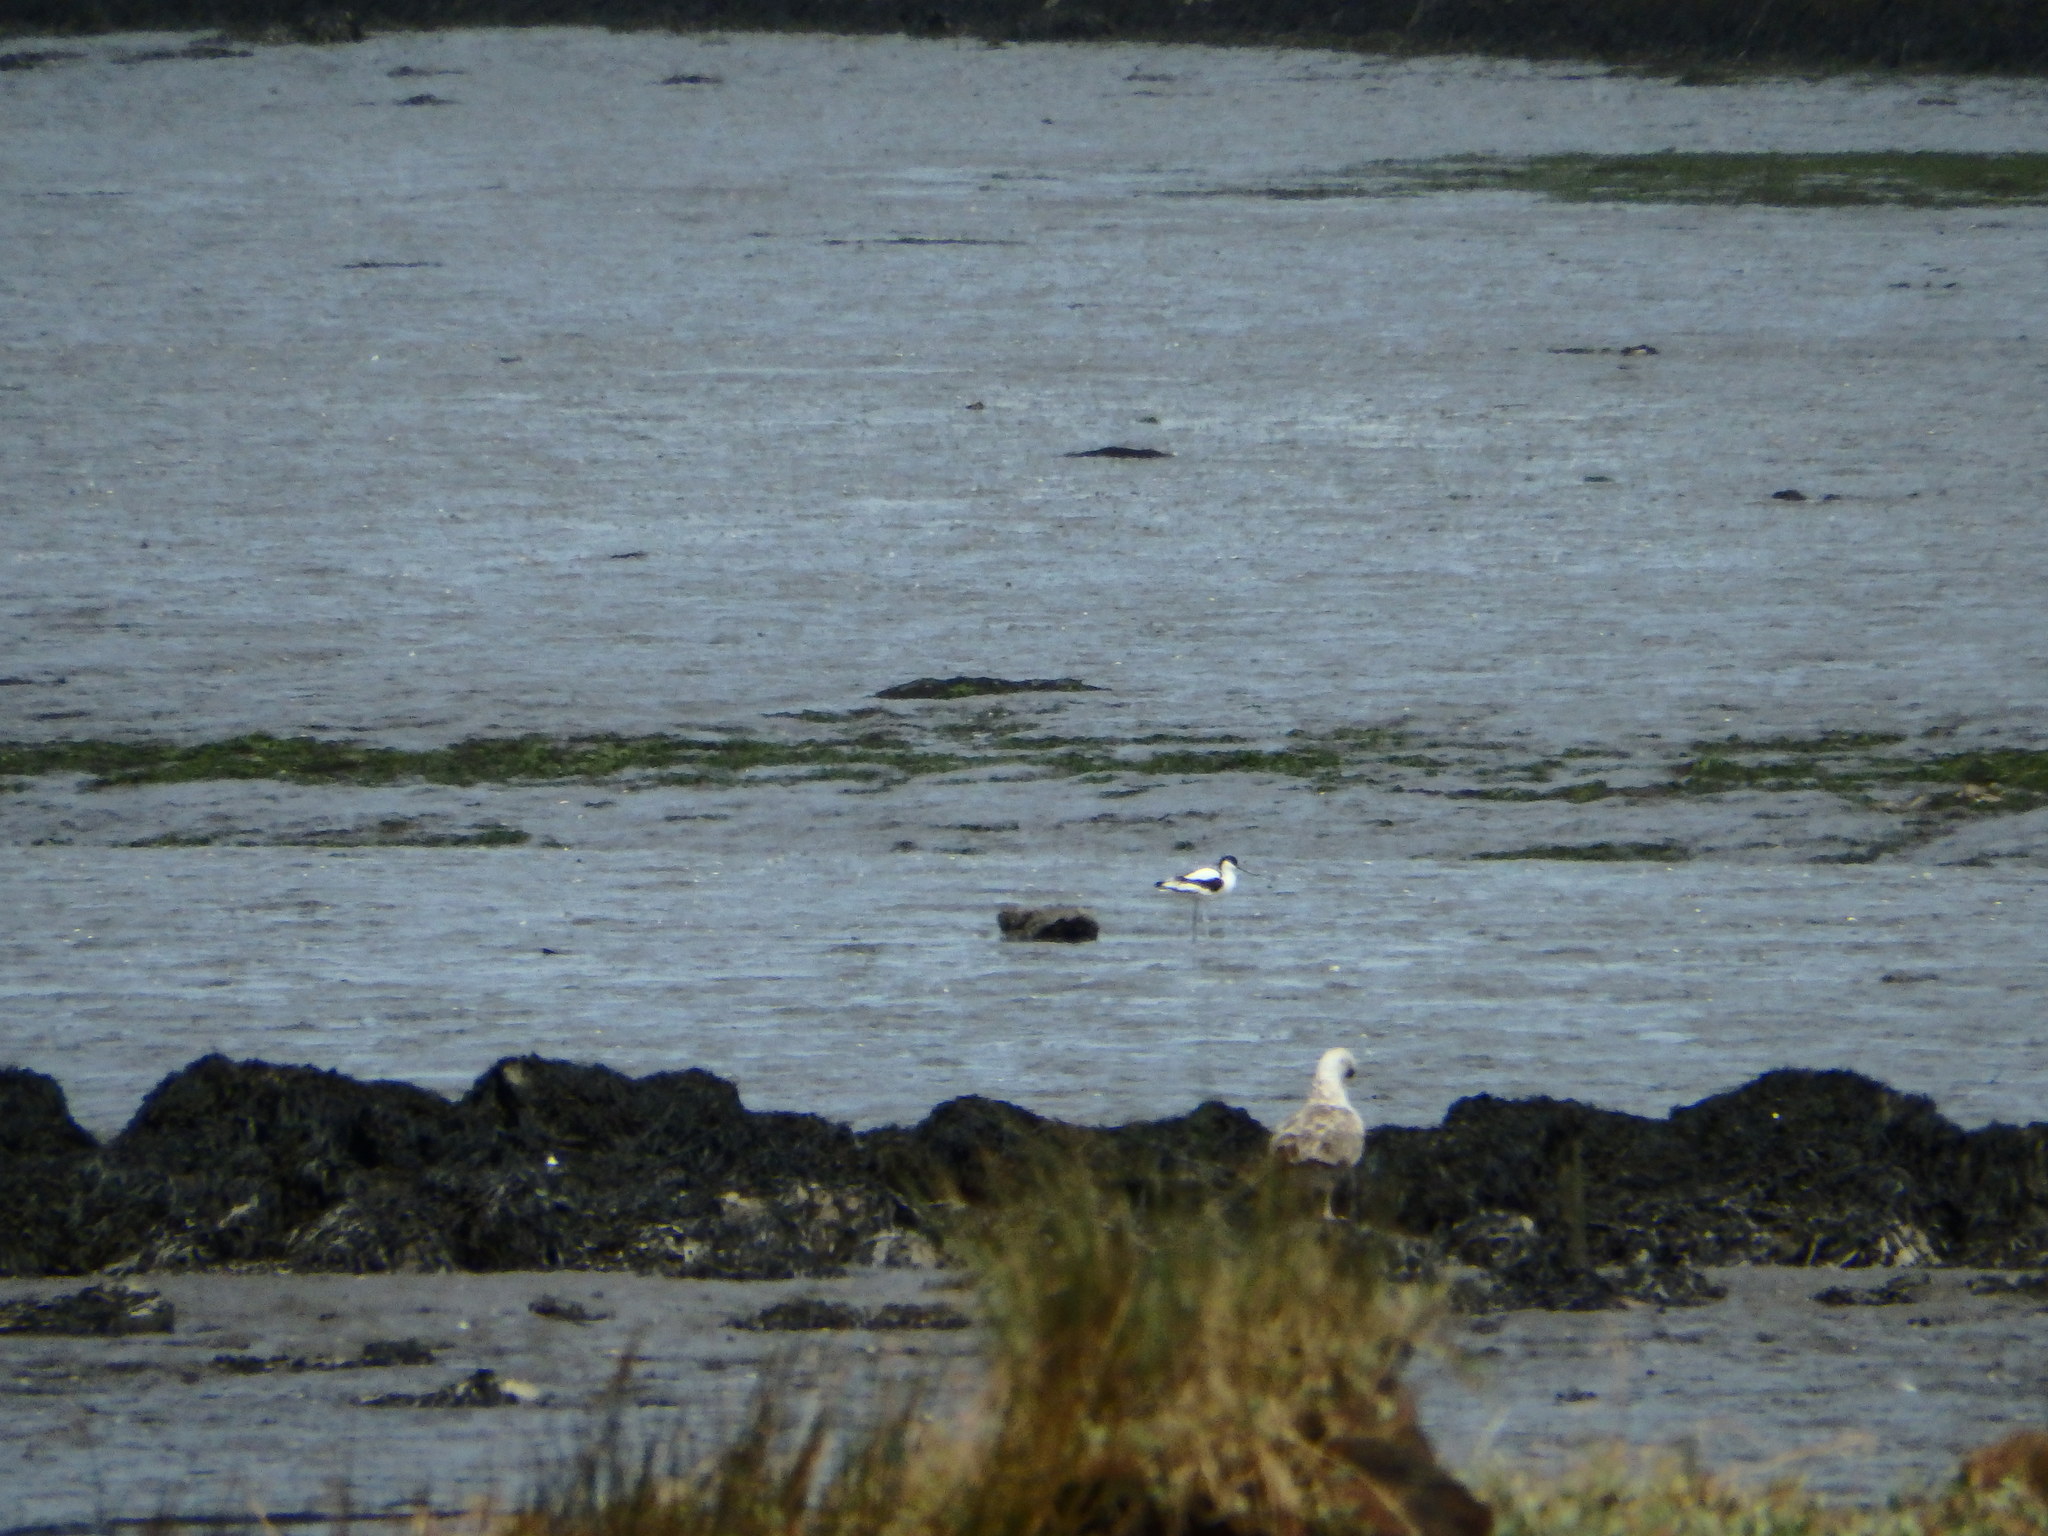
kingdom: Animalia
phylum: Chordata
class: Aves
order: Charadriiformes
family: Recurvirostridae
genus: Recurvirostra
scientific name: Recurvirostra avosetta
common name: Pied avocet
